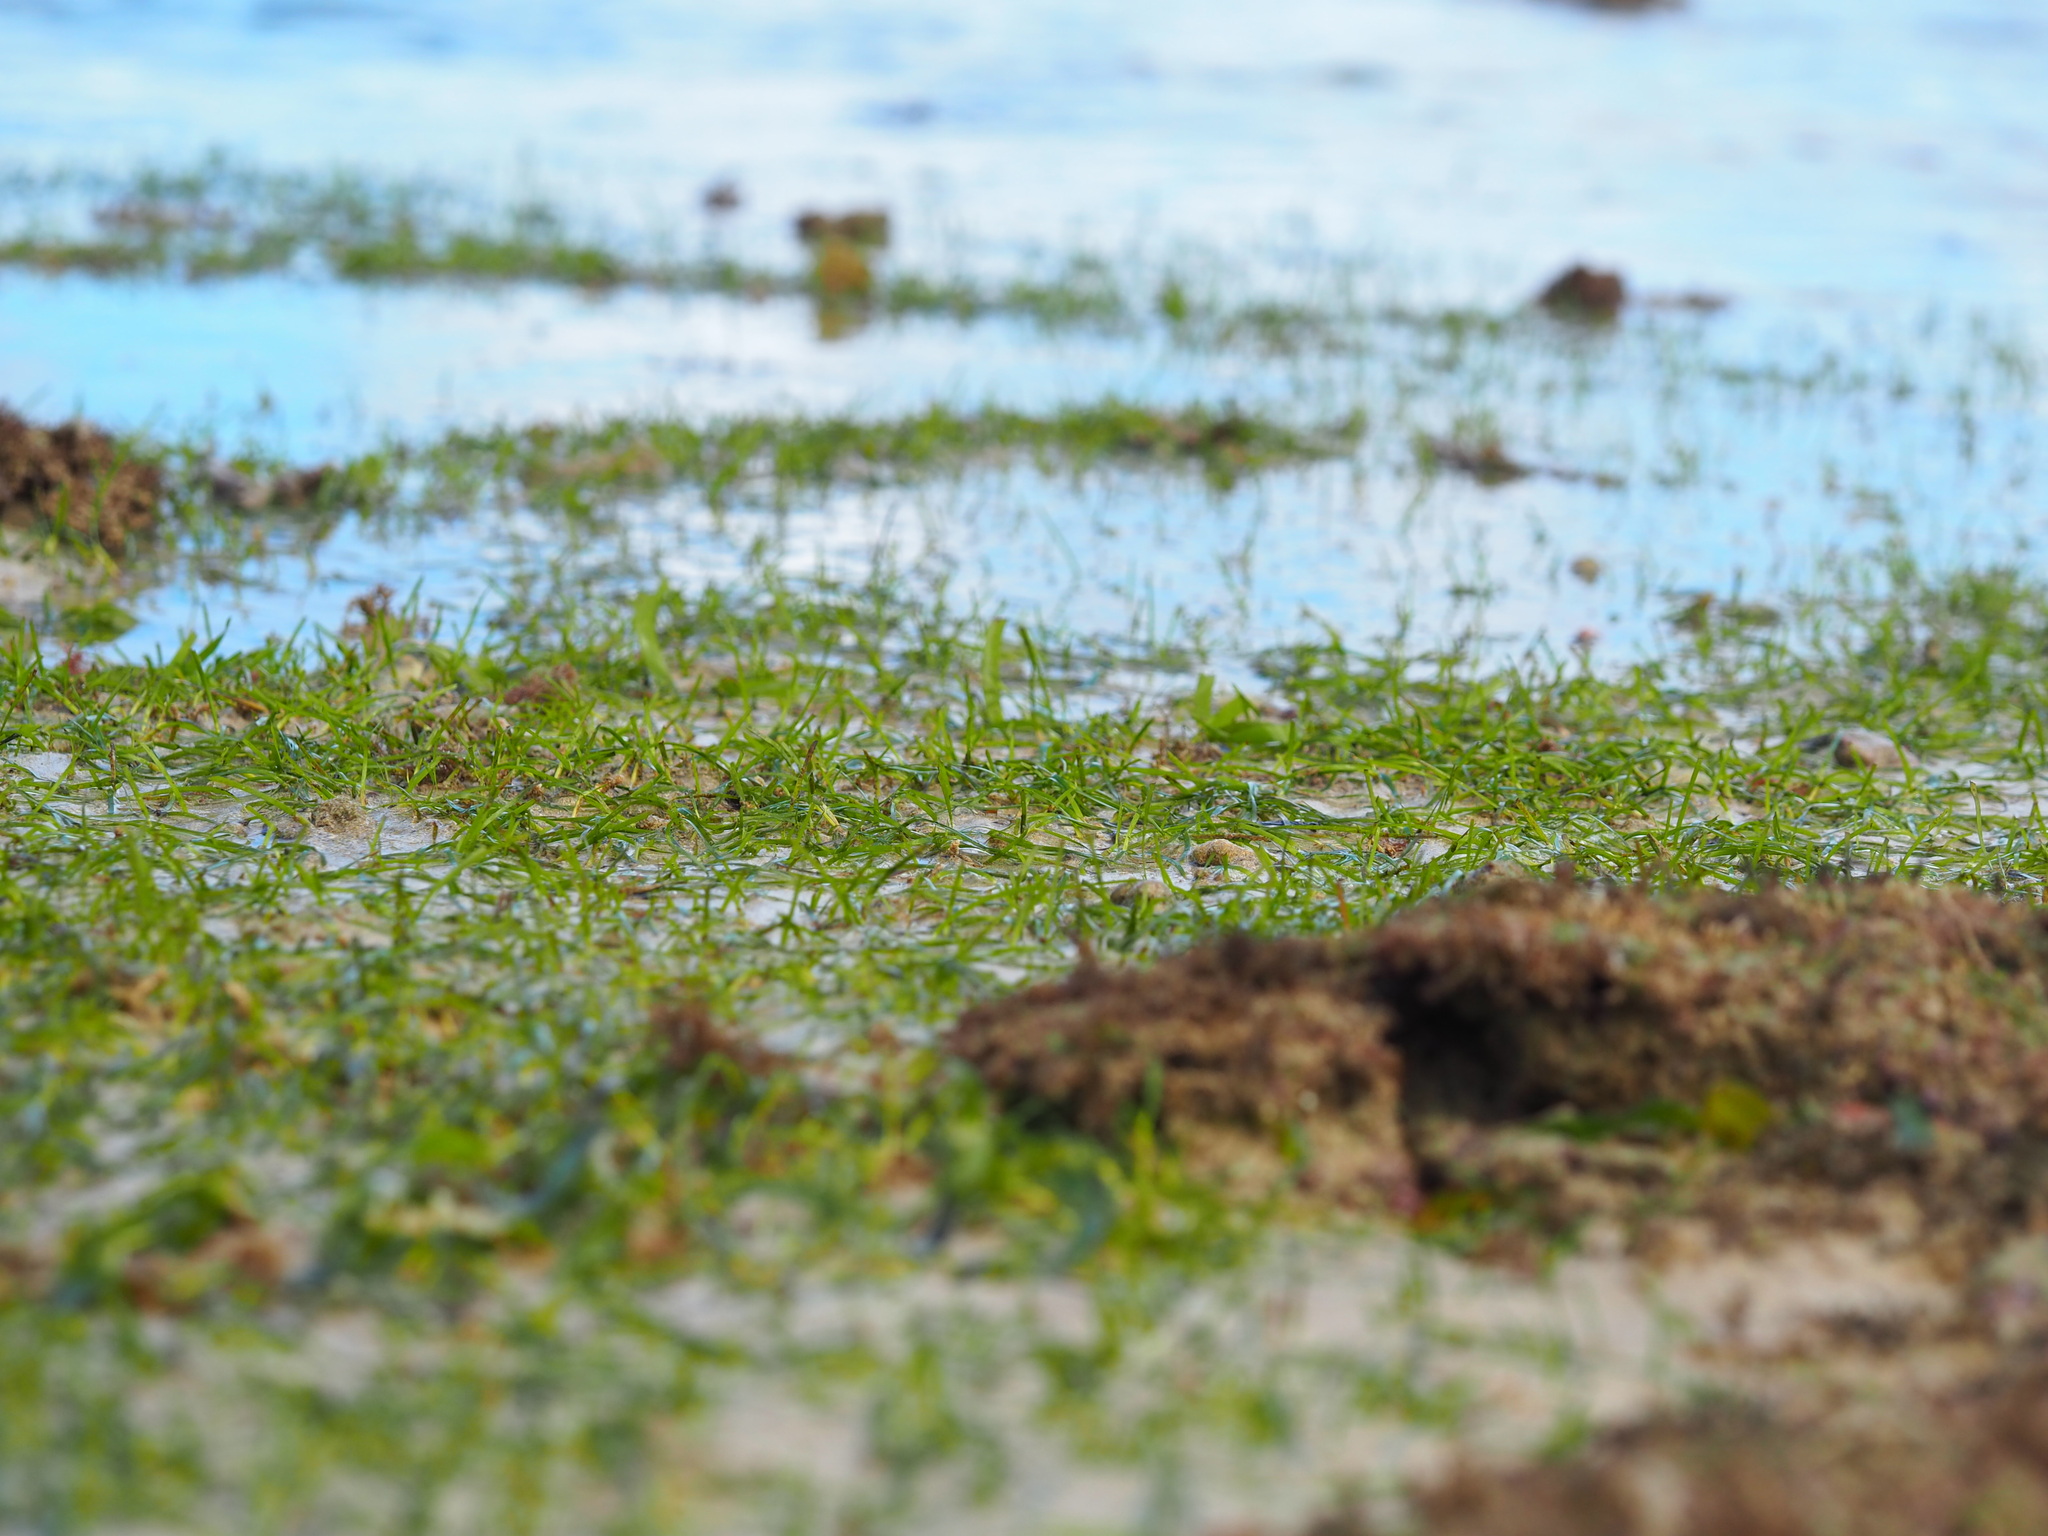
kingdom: Plantae
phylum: Tracheophyta
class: Liliopsida
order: Alismatales
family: Cymodoceaceae
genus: Halodule
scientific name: Halodule uninervis
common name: Narrowleaf seagrass
